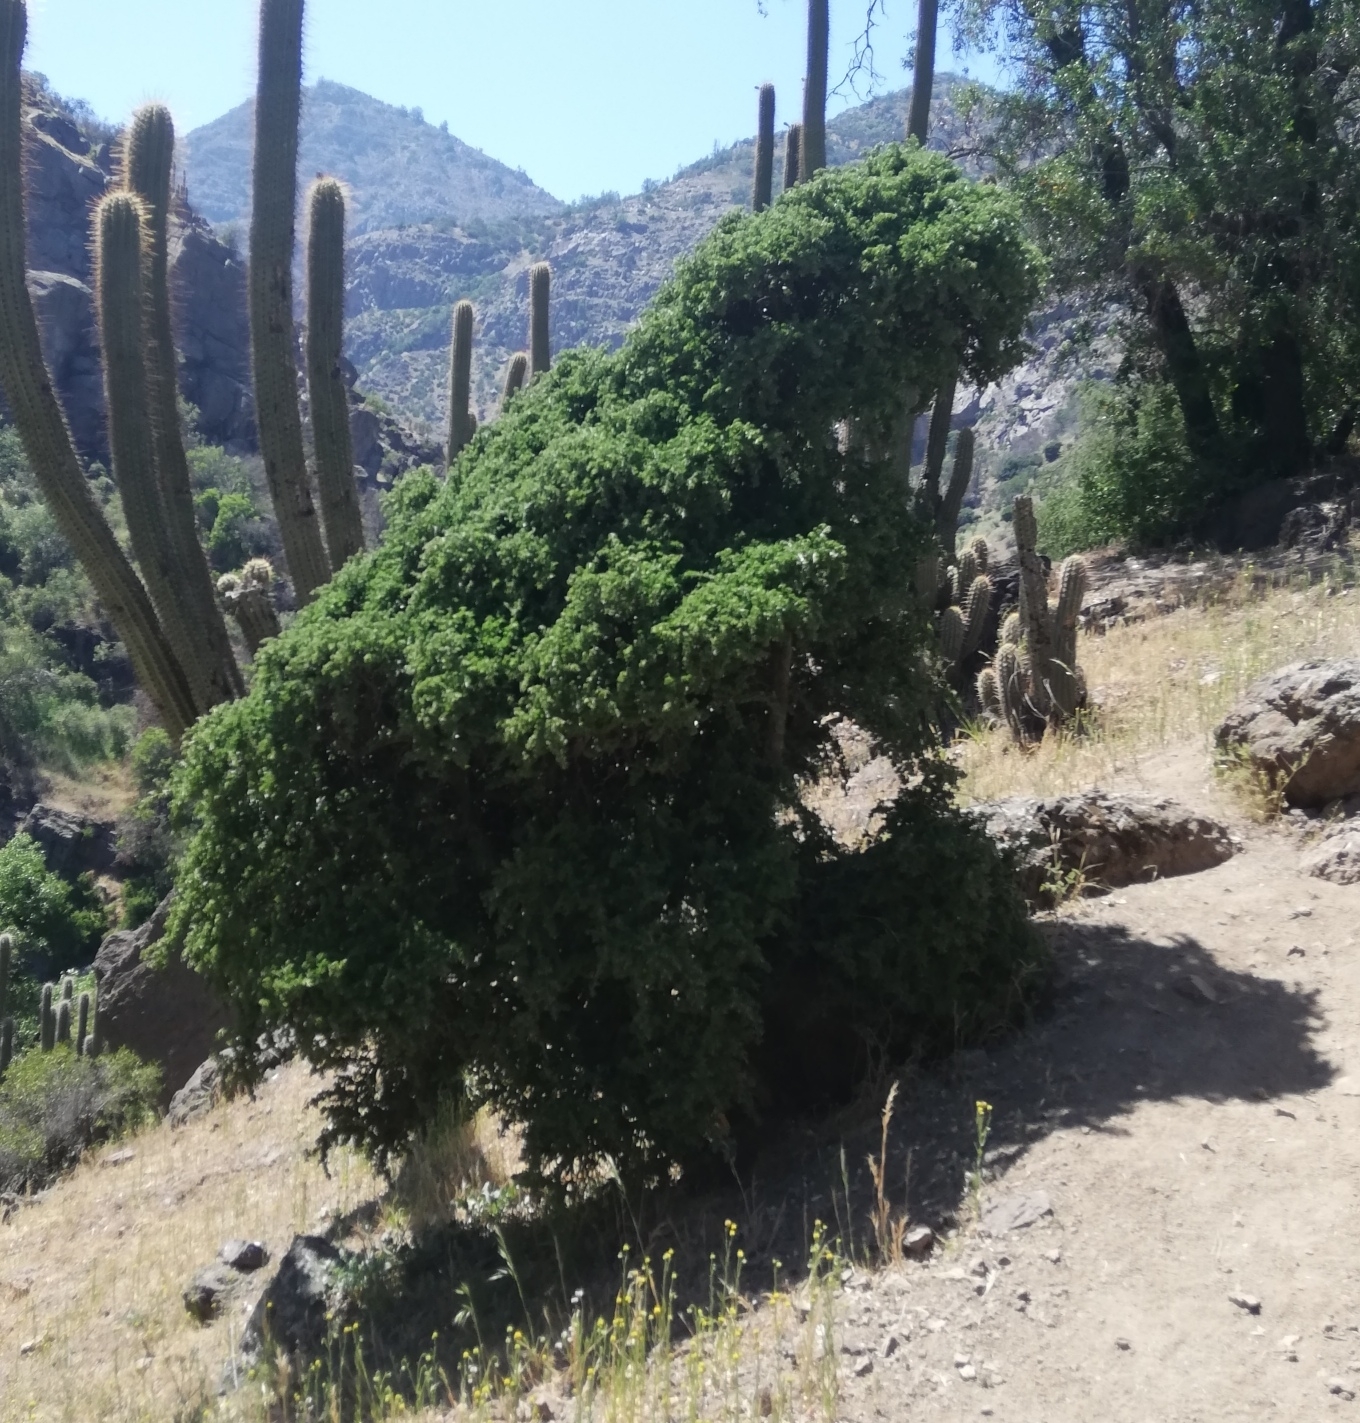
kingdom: Plantae
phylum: Tracheophyta
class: Magnoliopsida
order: Zygophyllales
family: Zygophyllaceae
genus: Porlieria
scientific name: Porlieria chilensis
